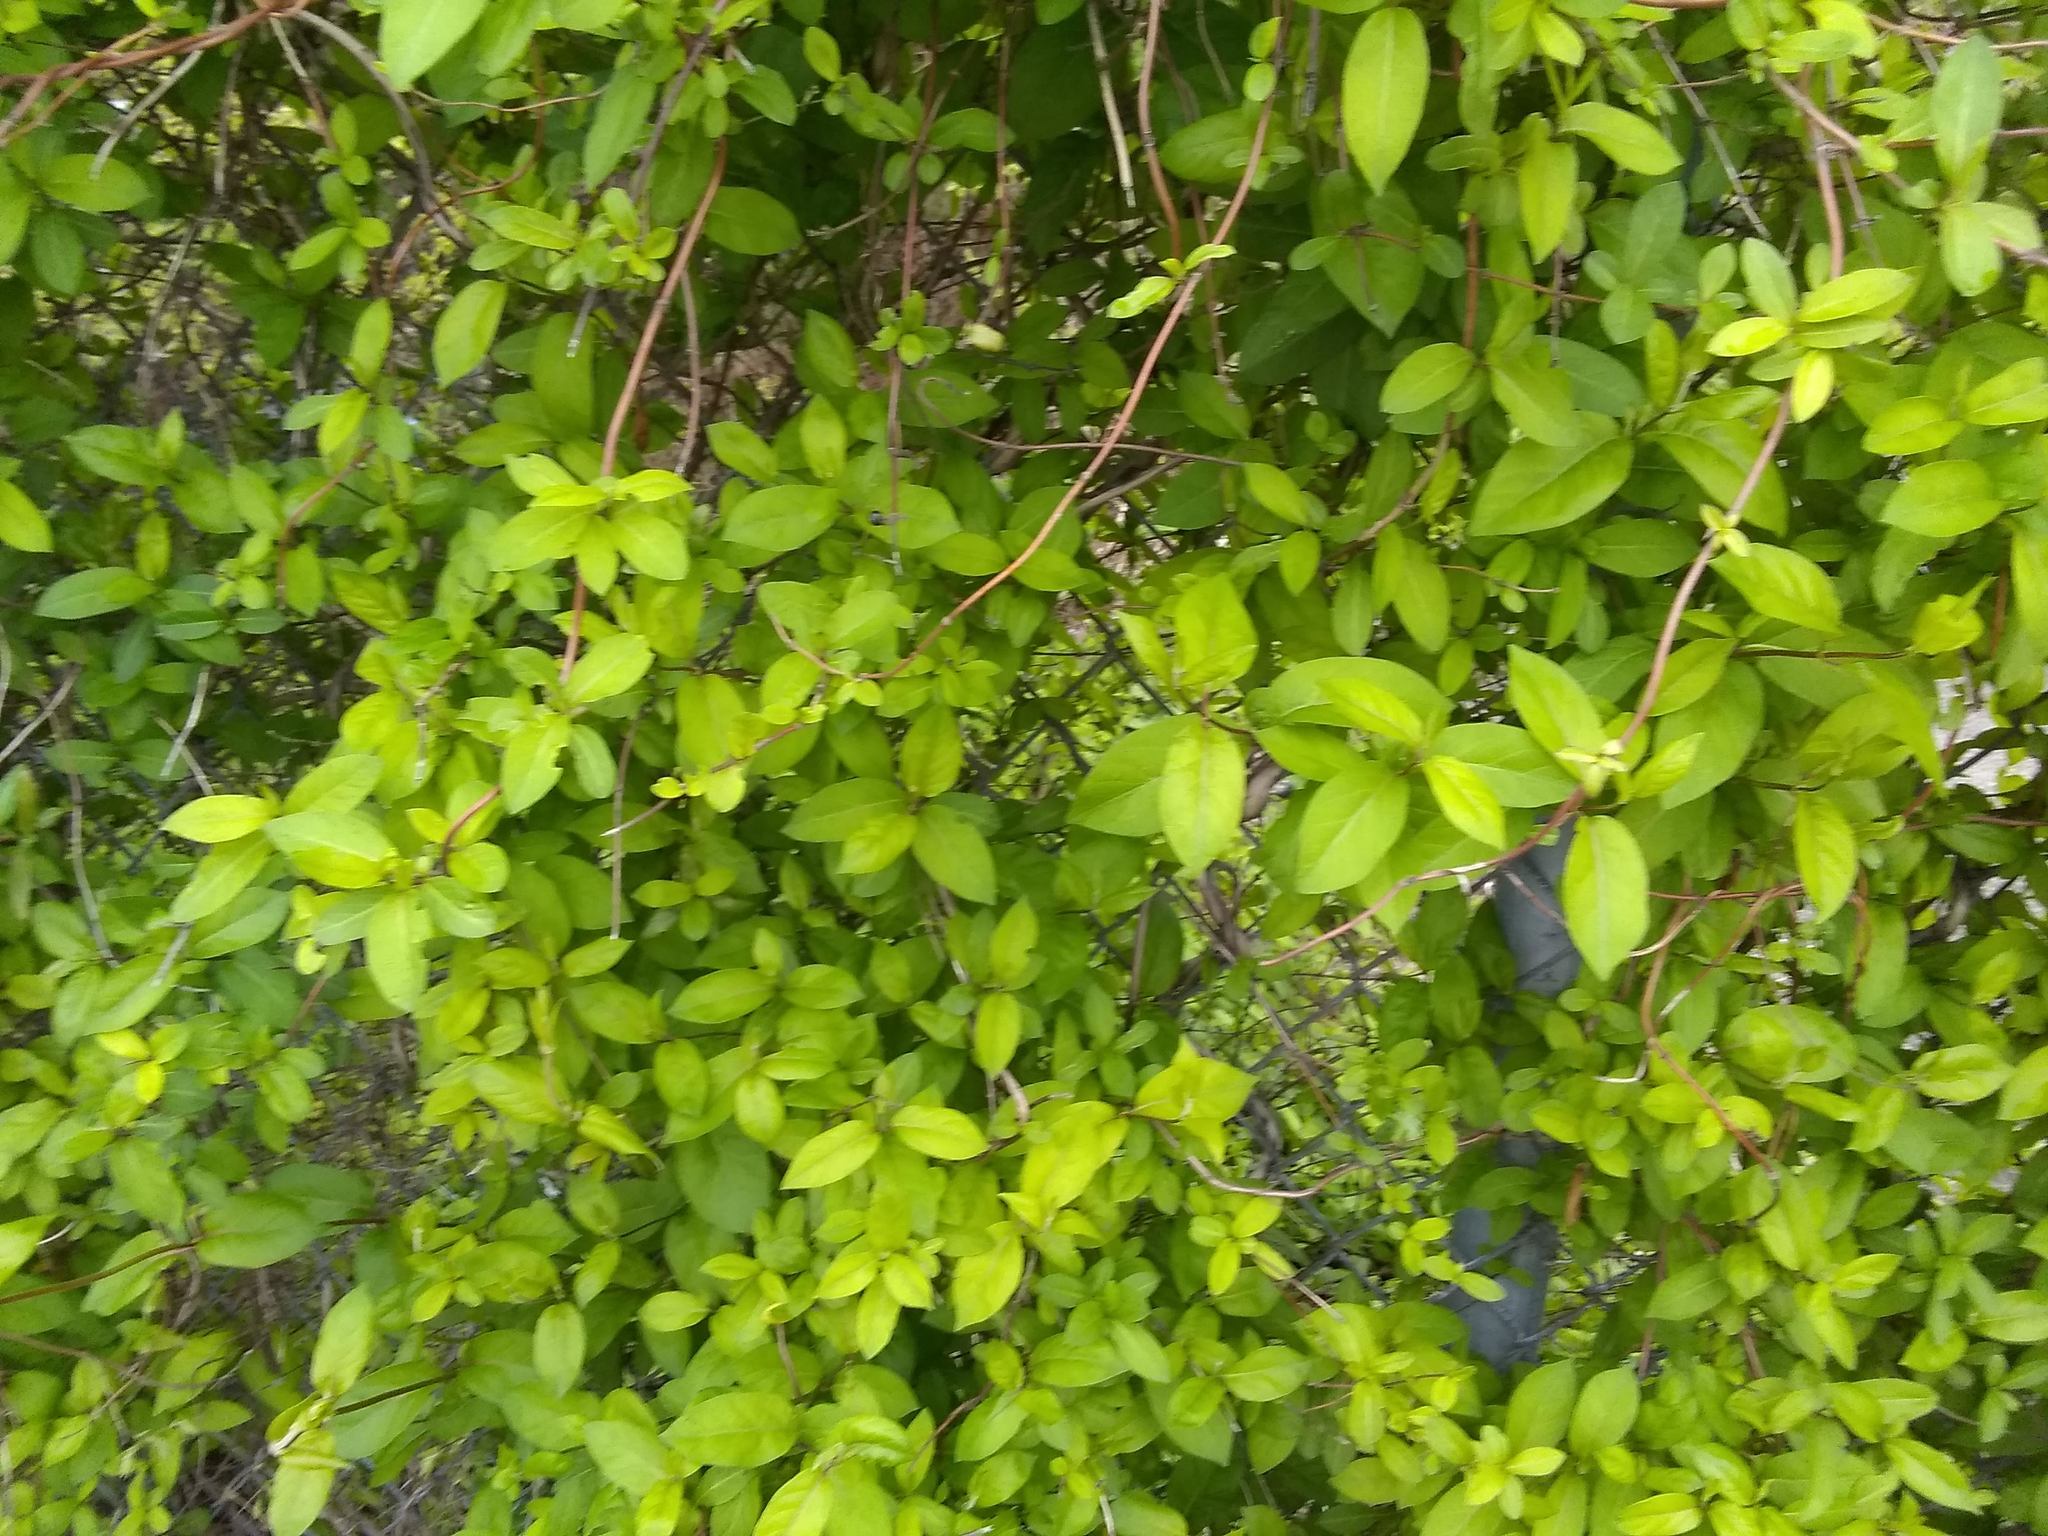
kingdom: Plantae
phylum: Tracheophyta
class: Magnoliopsida
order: Dipsacales
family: Caprifoliaceae
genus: Lonicera
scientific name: Lonicera japonica
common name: Japanese honeysuckle
